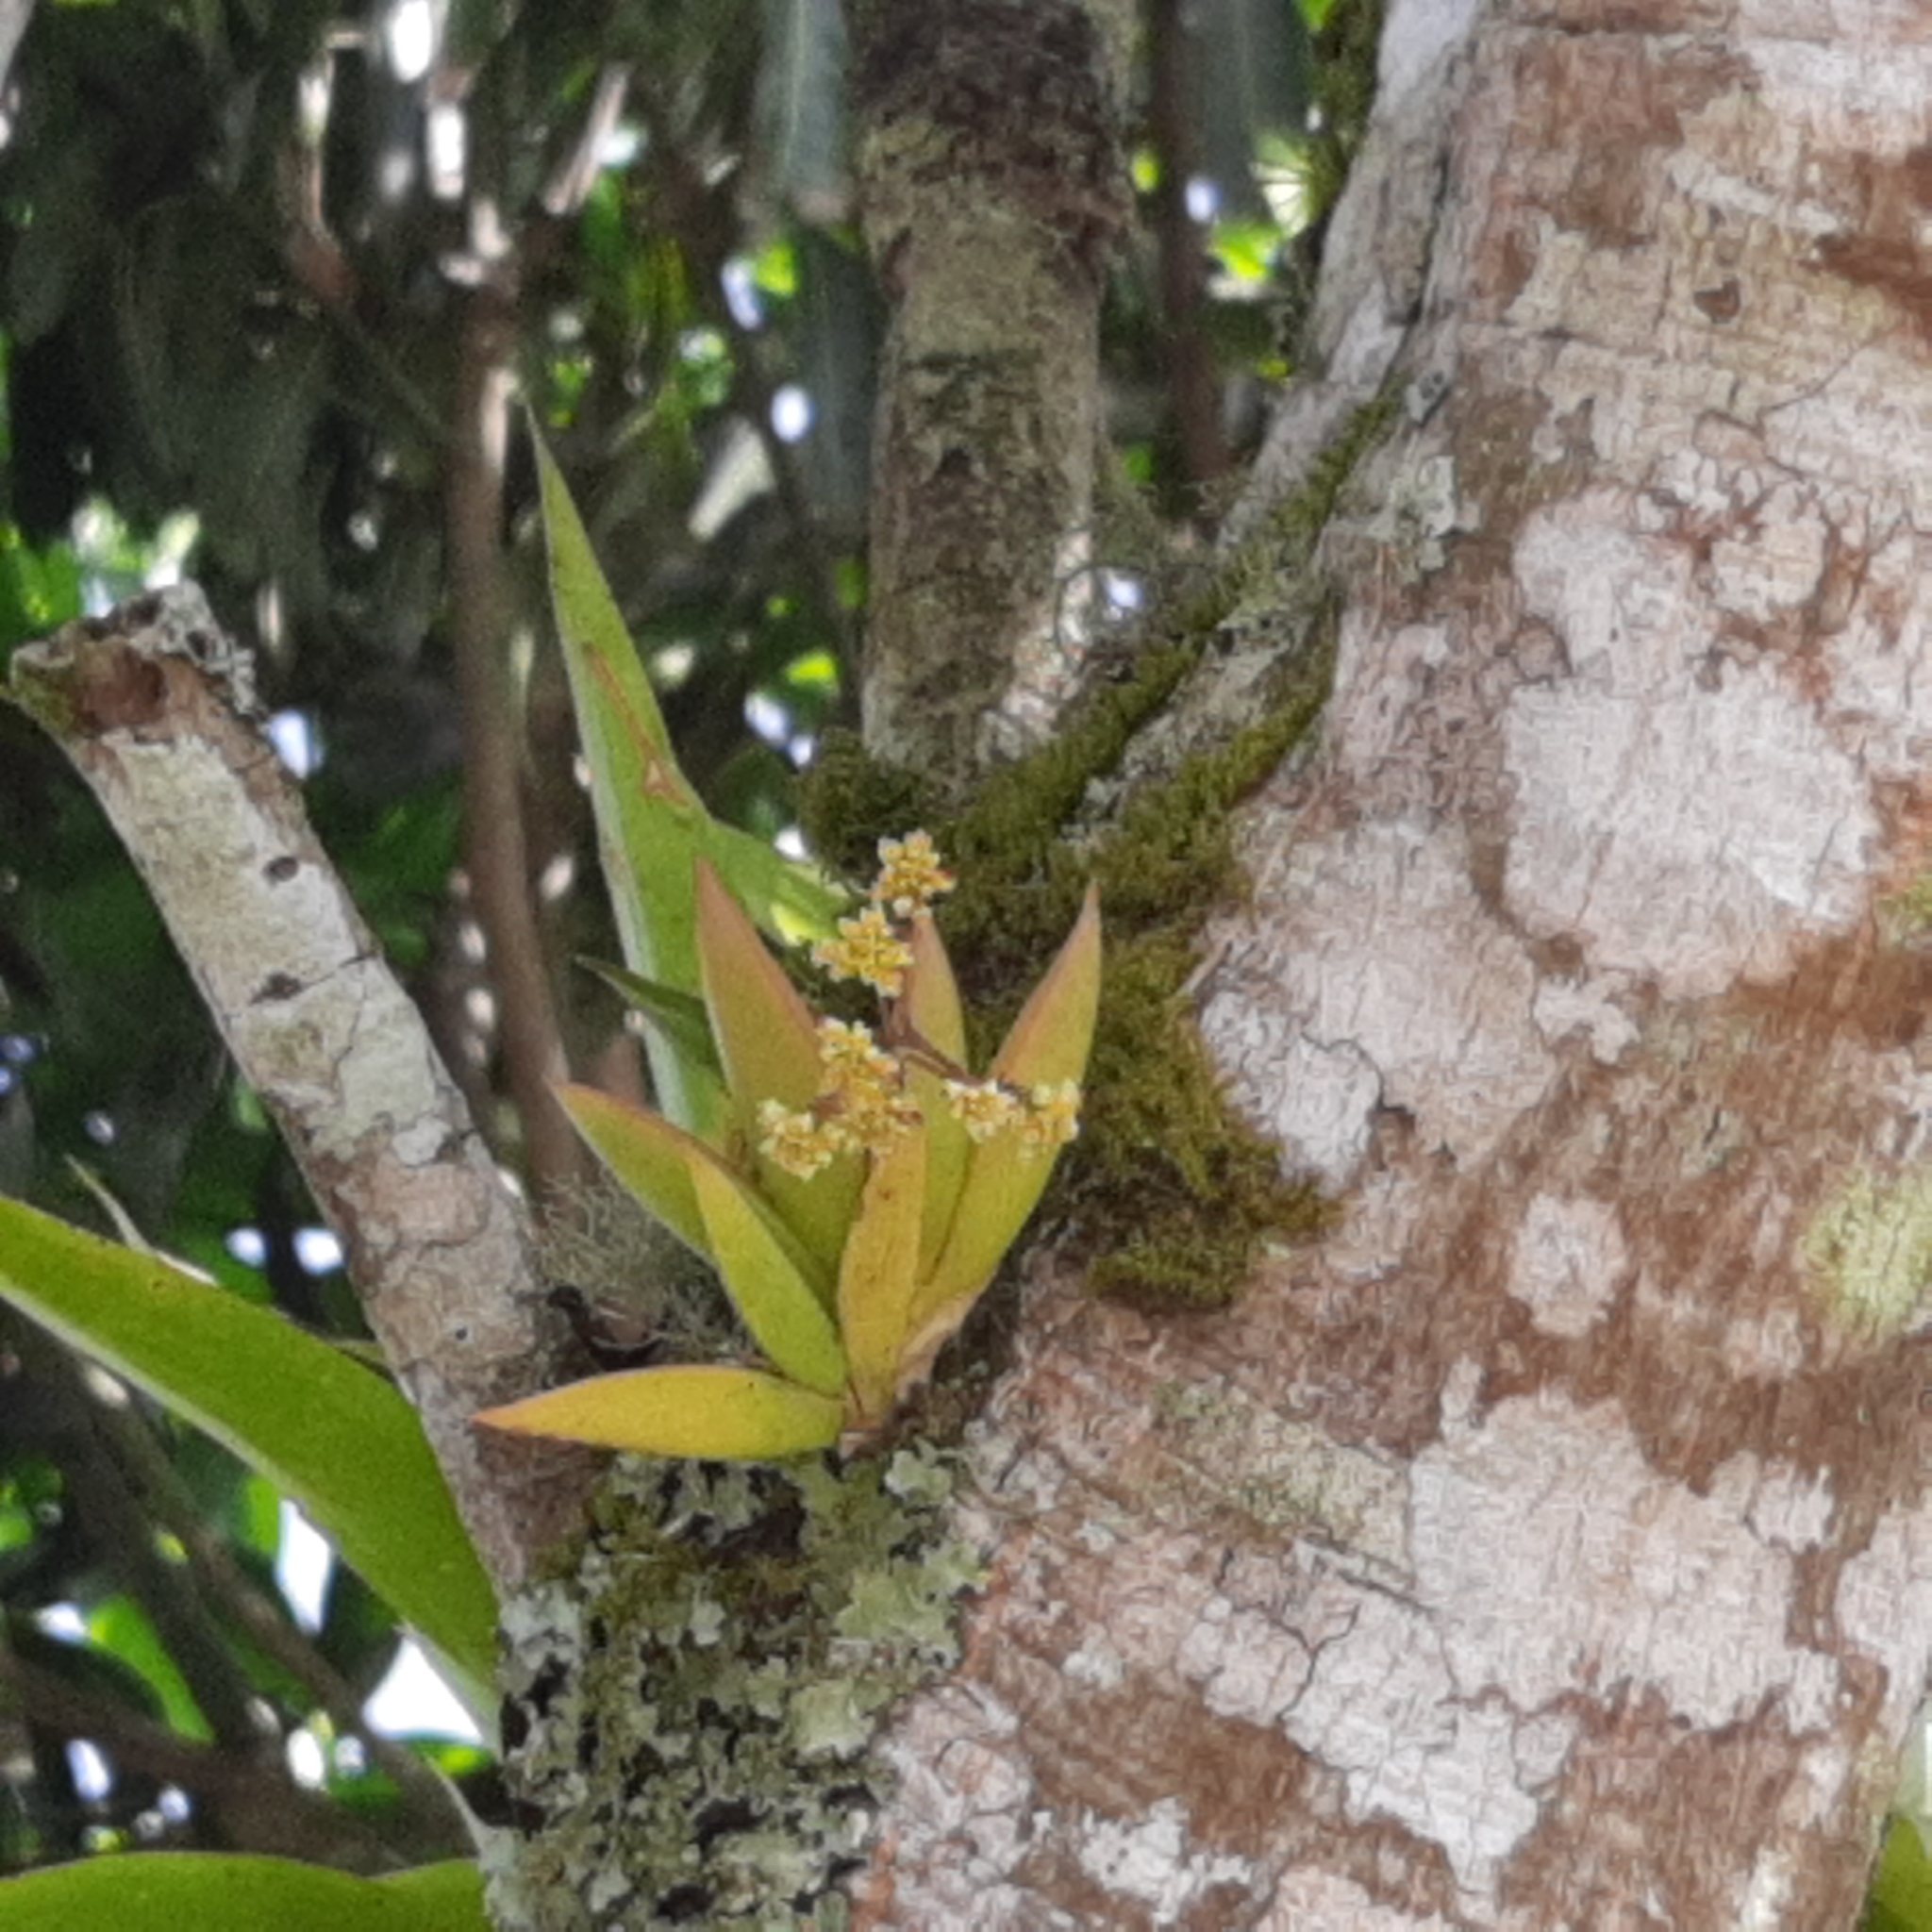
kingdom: Plantae
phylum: Tracheophyta
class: Liliopsida
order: Asparagales
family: Orchidaceae
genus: Trizeuxis
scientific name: Trizeuxis falcata
